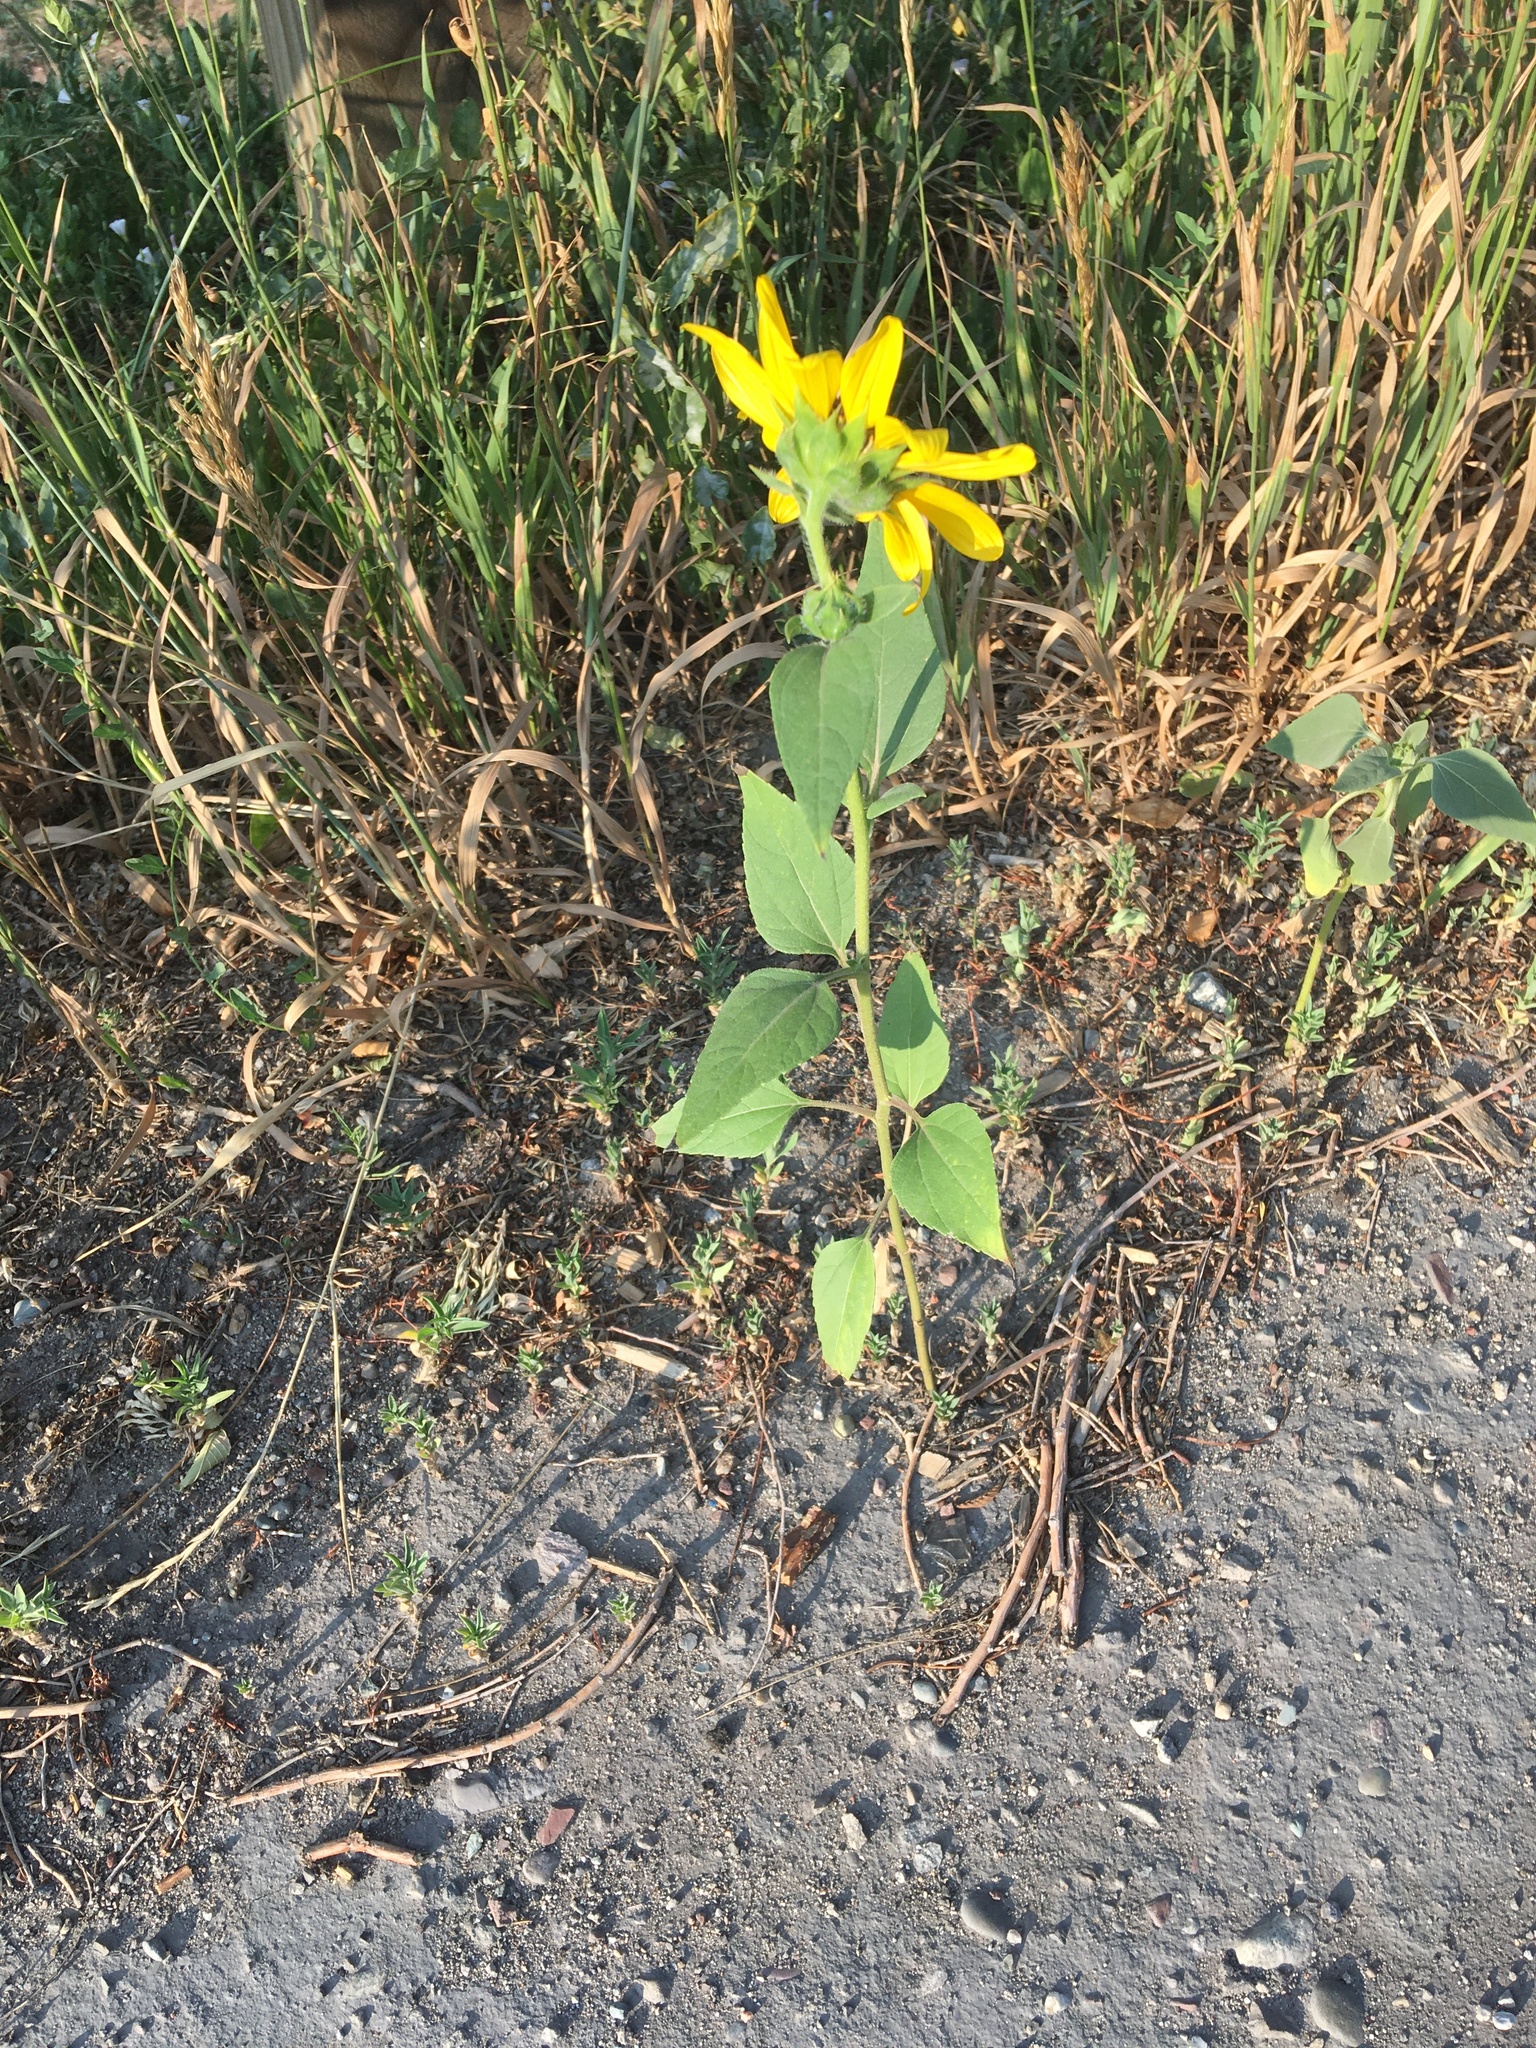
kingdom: Plantae
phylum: Tracheophyta
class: Magnoliopsida
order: Asterales
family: Asteraceae
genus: Helianthus
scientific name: Helianthus annuus
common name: Sunflower
